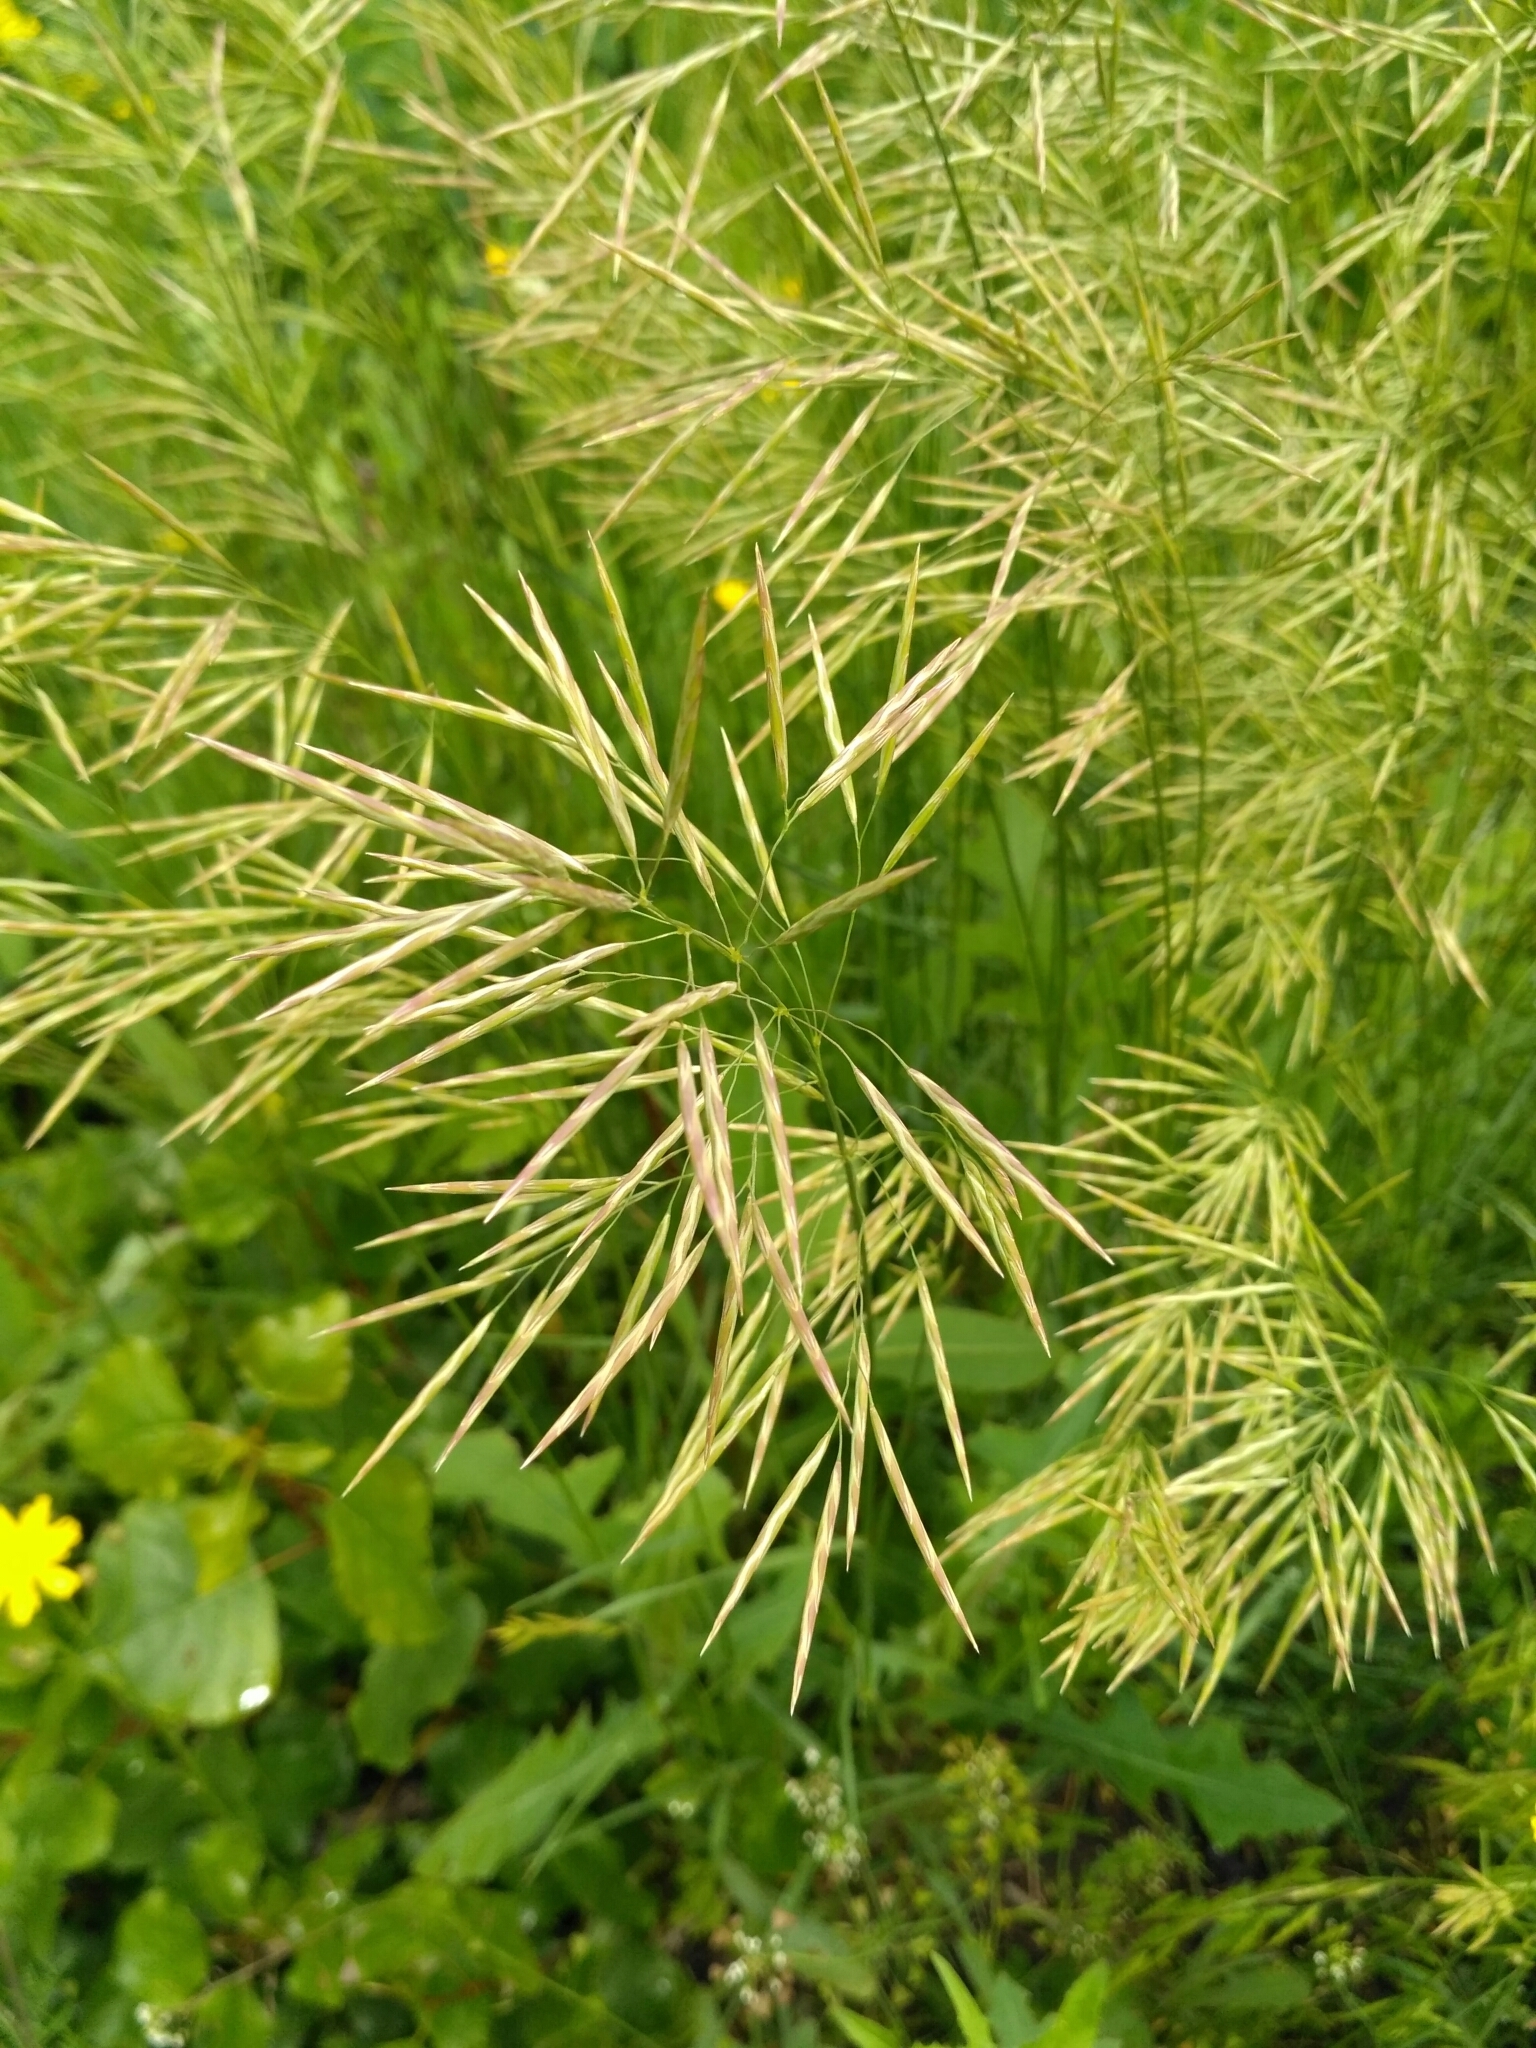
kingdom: Plantae
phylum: Tracheophyta
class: Liliopsida
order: Poales
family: Poaceae
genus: Bromus
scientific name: Bromus inermis
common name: Smooth brome
